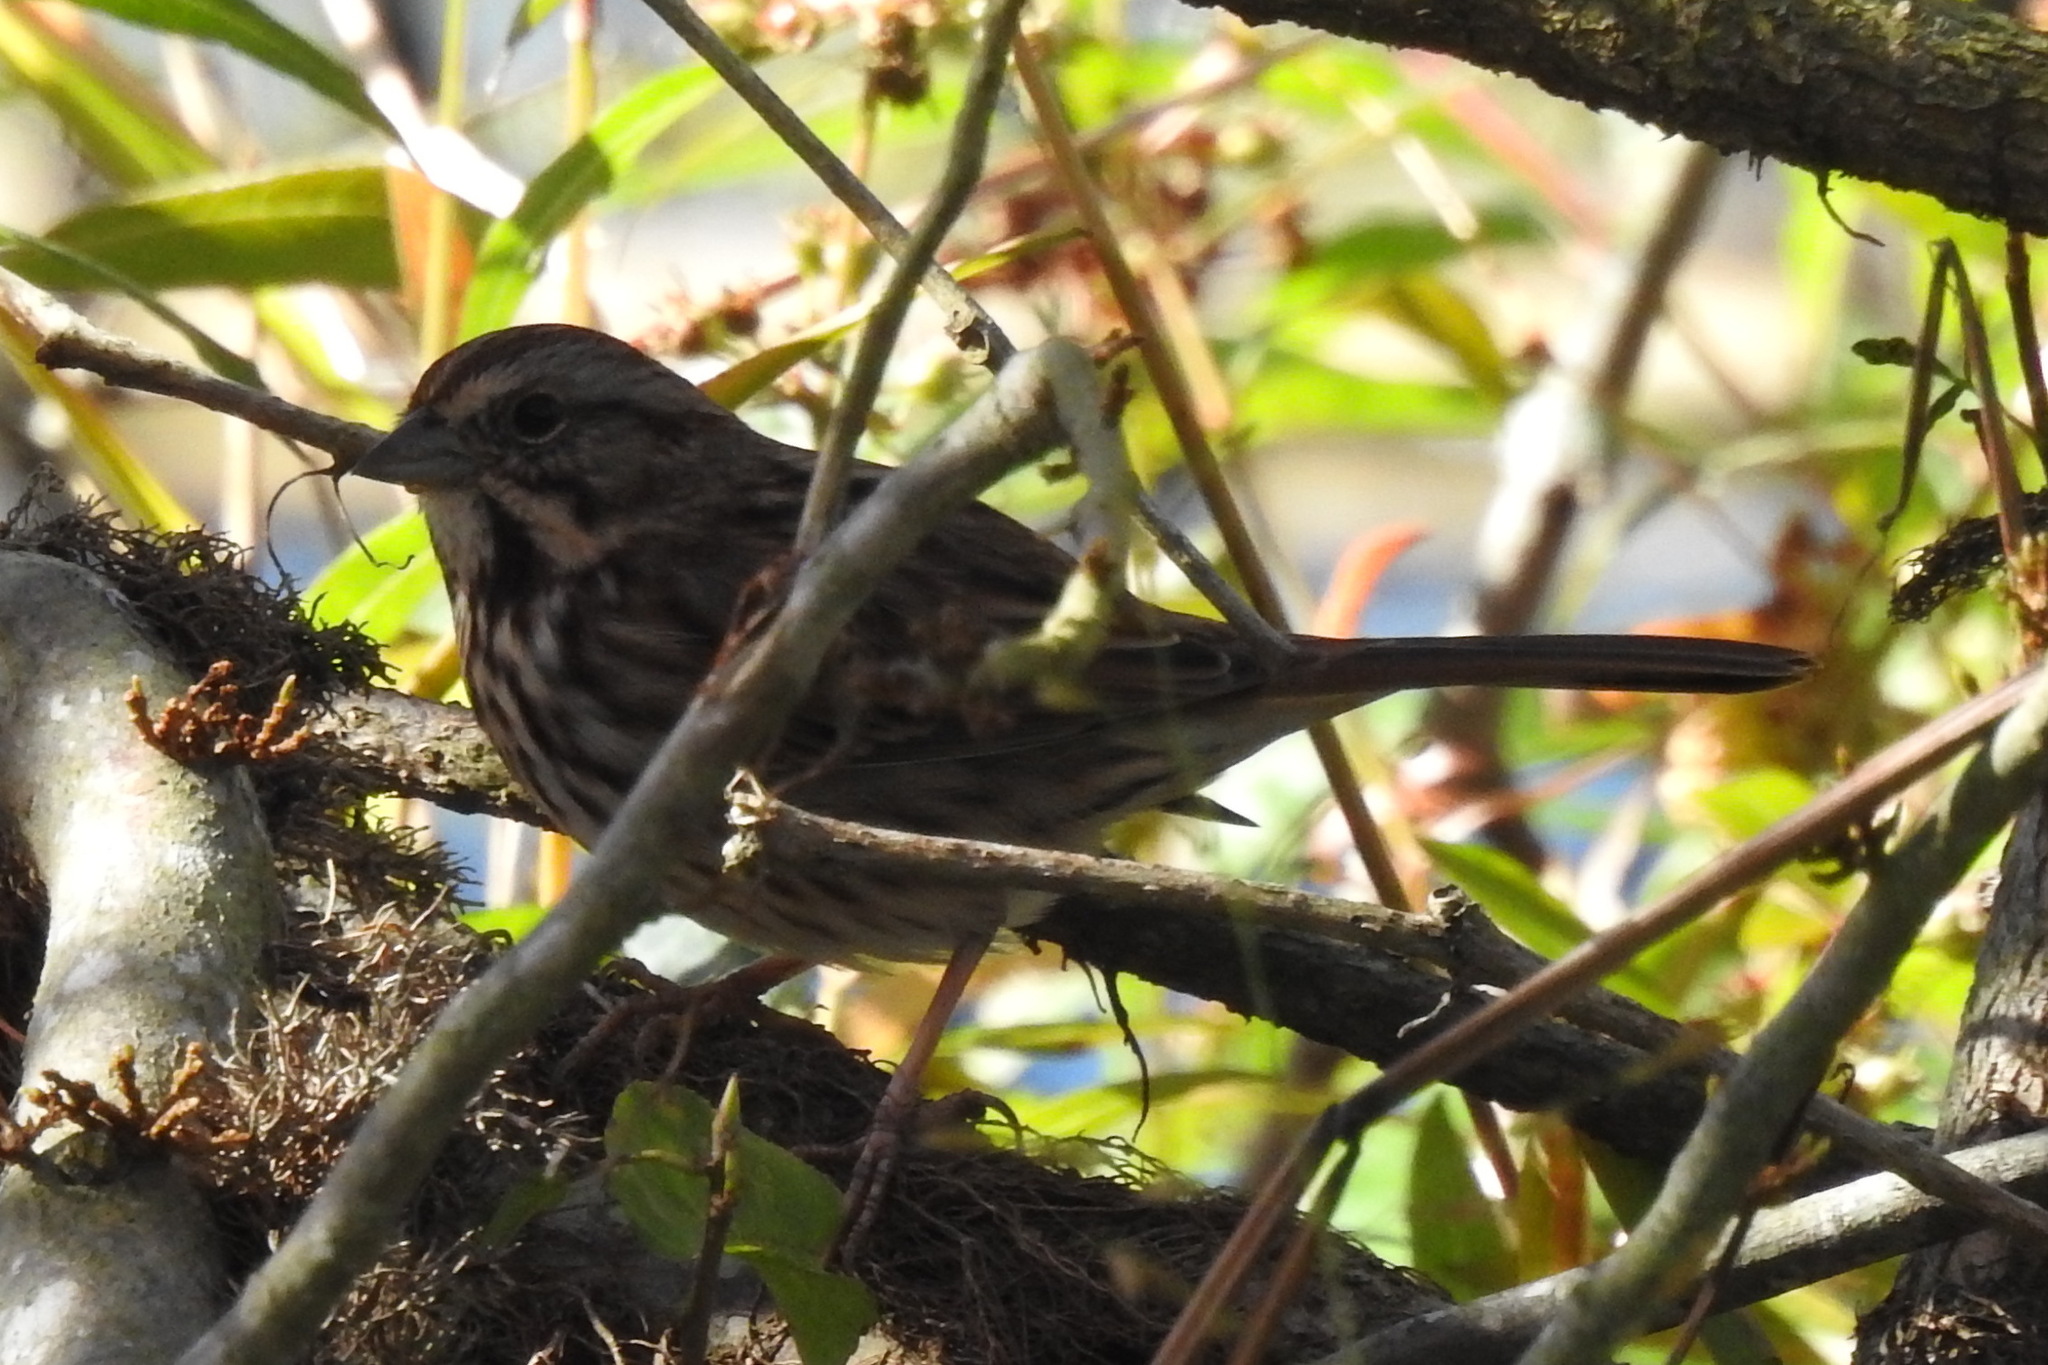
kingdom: Animalia
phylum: Chordata
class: Aves
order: Passeriformes
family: Passerellidae
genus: Melospiza
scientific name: Melospiza melodia
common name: Song sparrow
